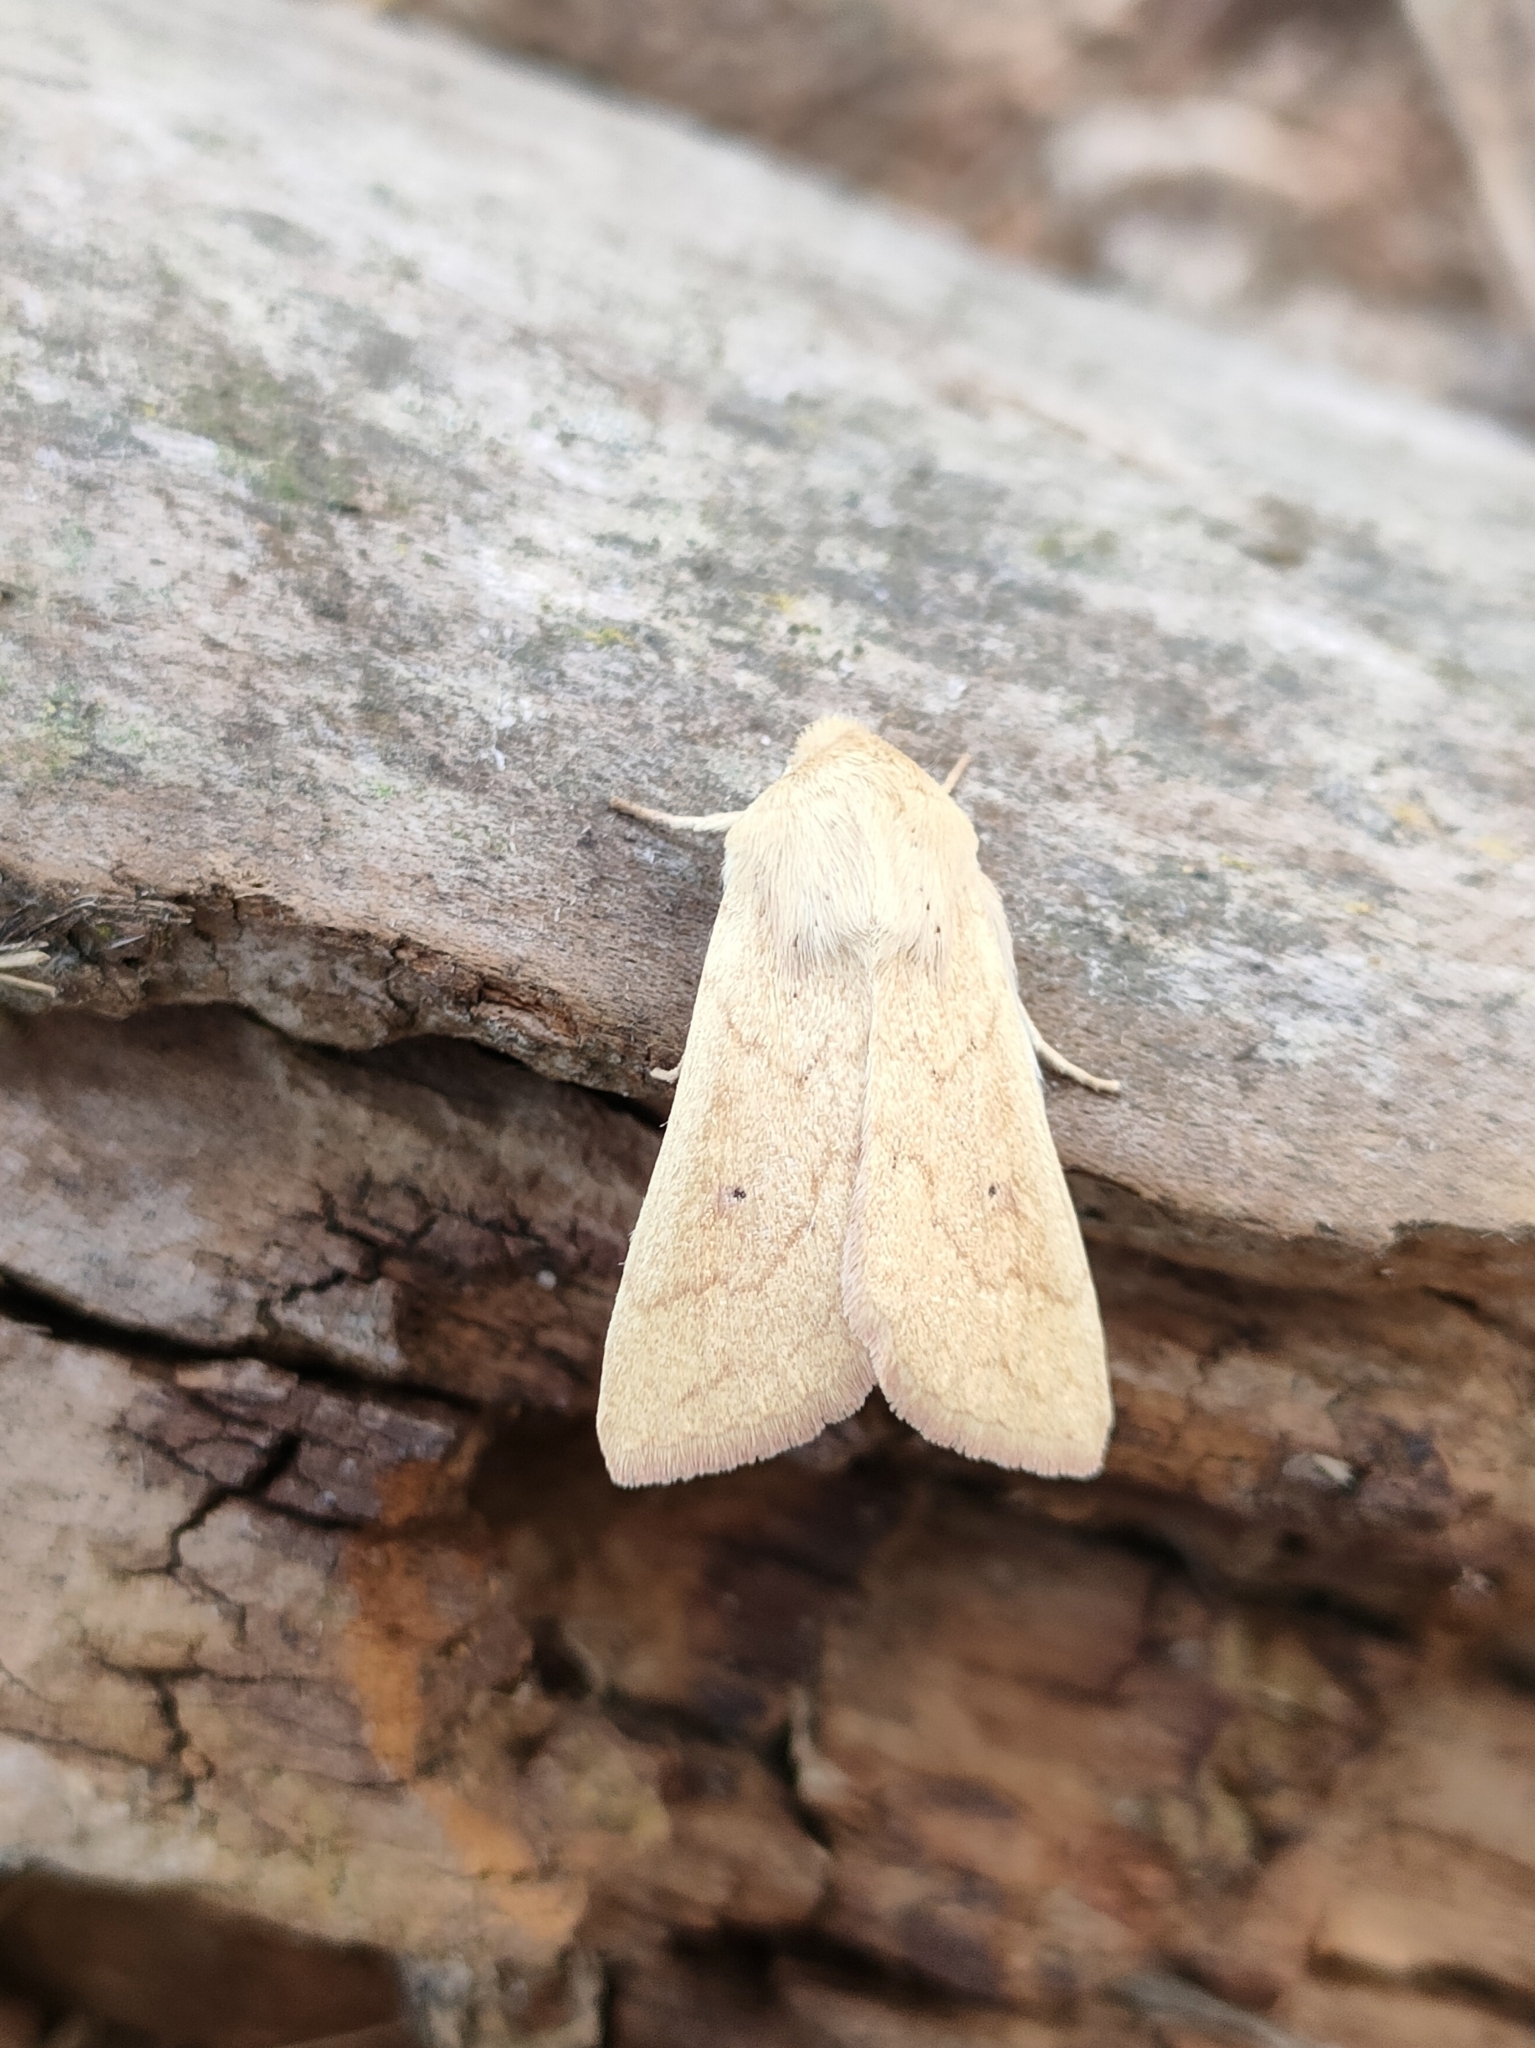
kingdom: Animalia
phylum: Arthropoda
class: Insecta
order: Lepidoptera
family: Noctuidae
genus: Mythimna
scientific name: Mythimna vitellina
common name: Delicate
